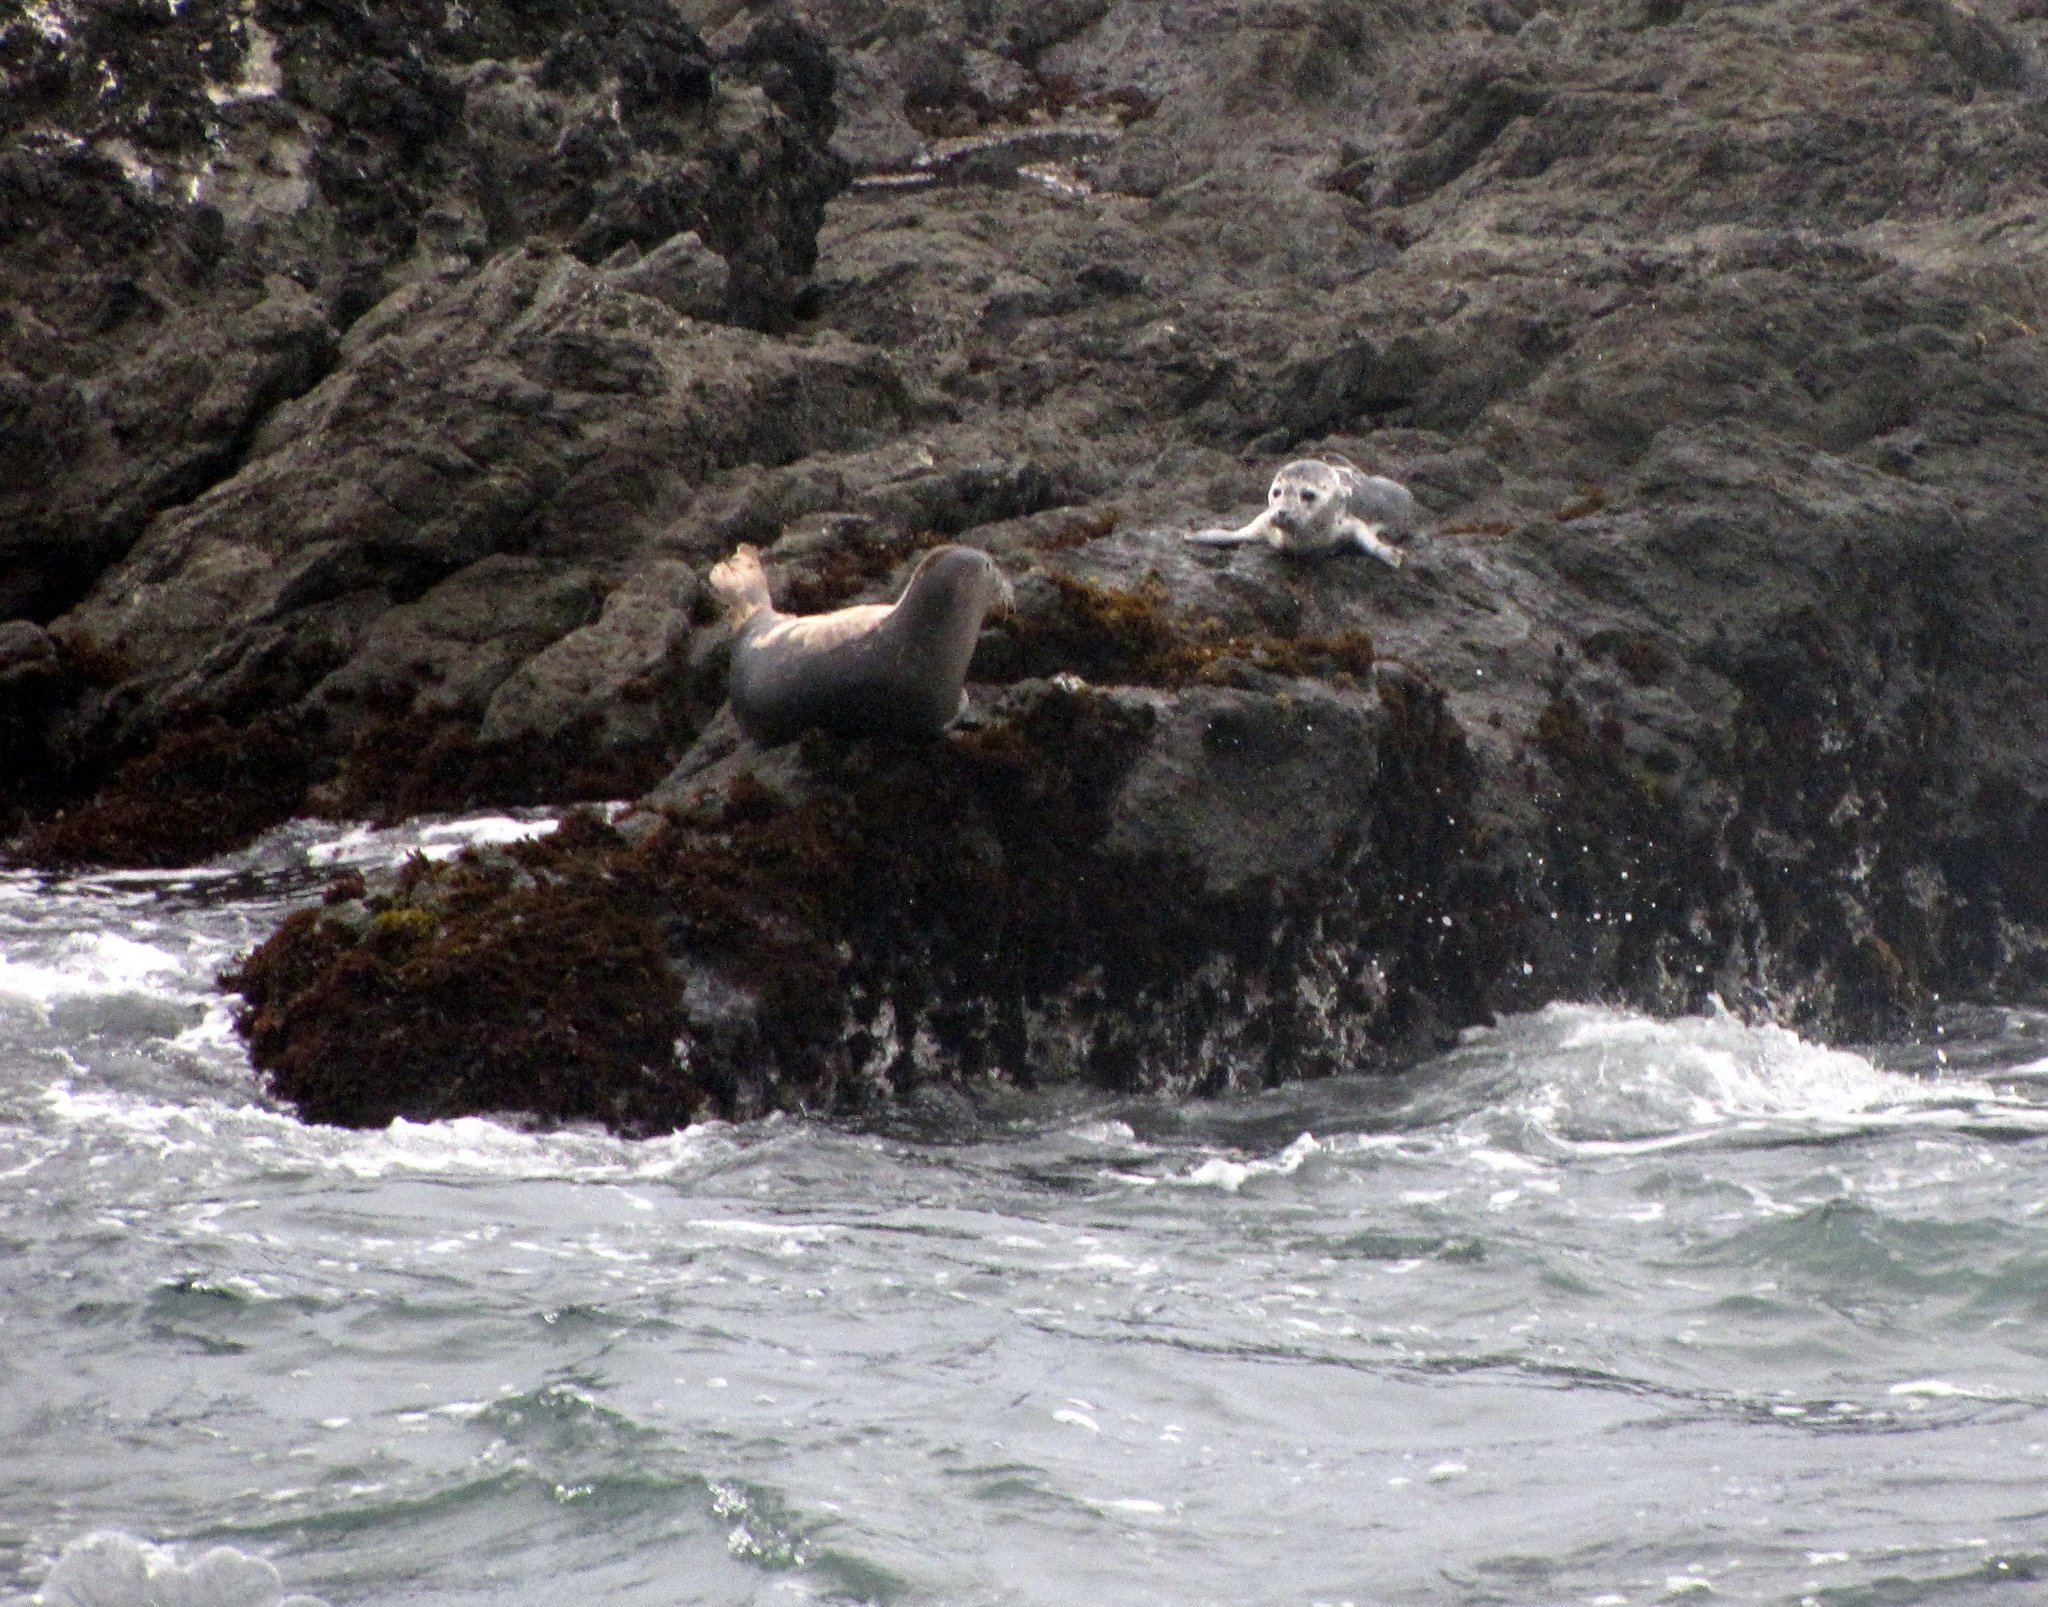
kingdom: Animalia
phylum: Chordata
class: Mammalia
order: Carnivora
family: Phocidae
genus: Phoca
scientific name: Phoca vitulina
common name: Harbor seal
